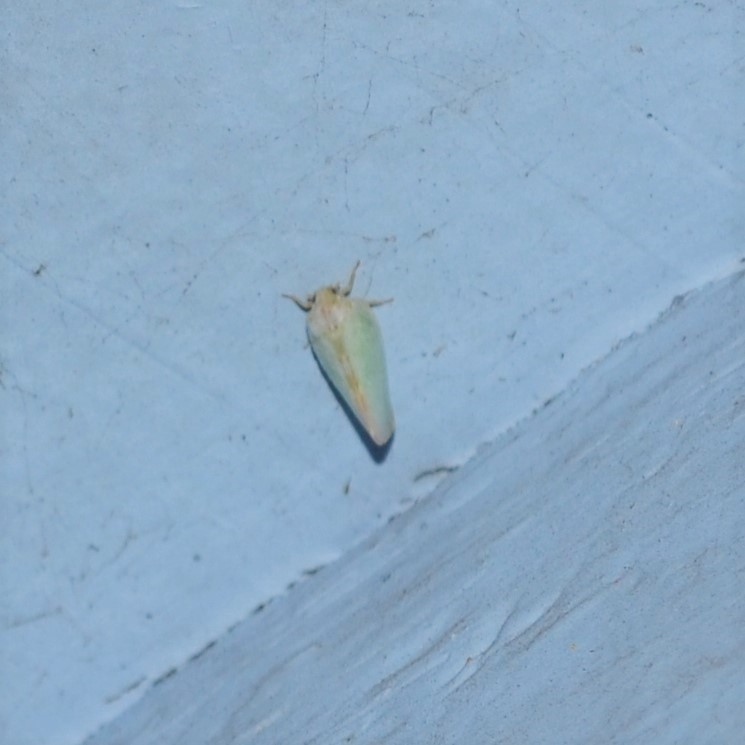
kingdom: Animalia
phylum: Arthropoda
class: Insecta
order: Hemiptera
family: Flatidae
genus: Ormenoides
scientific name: Ormenoides venusta
